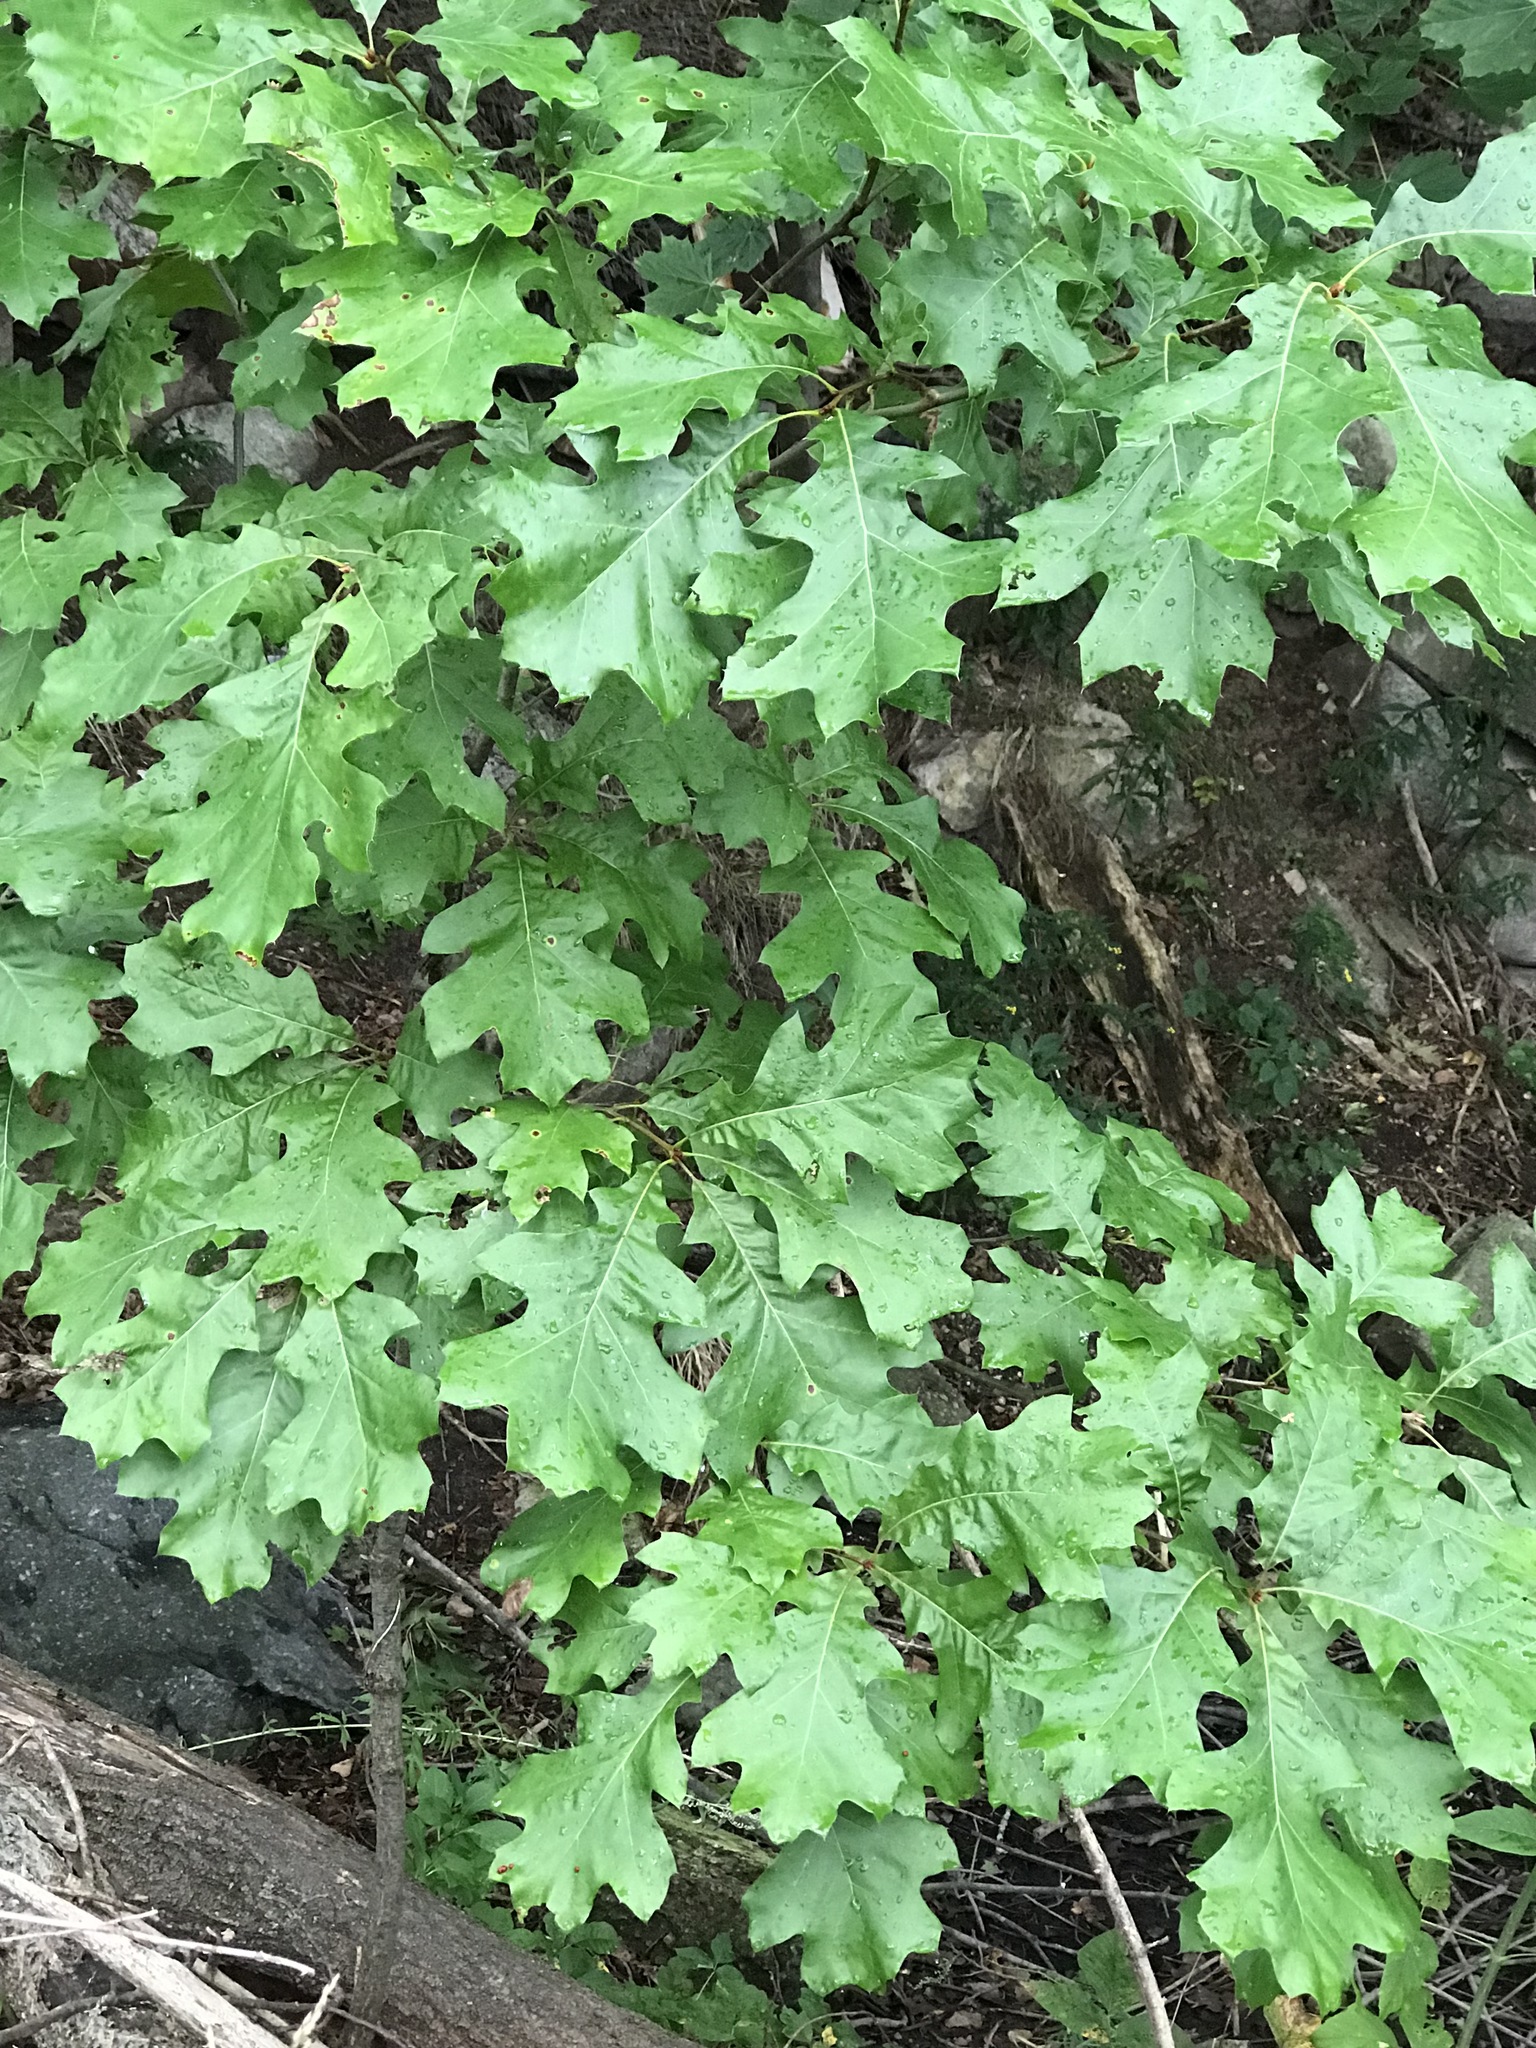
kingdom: Plantae
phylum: Tracheophyta
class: Magnoliopsida
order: Fagales
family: Fagaceae
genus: Quercus
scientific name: Quercus velutina
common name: Black oak
